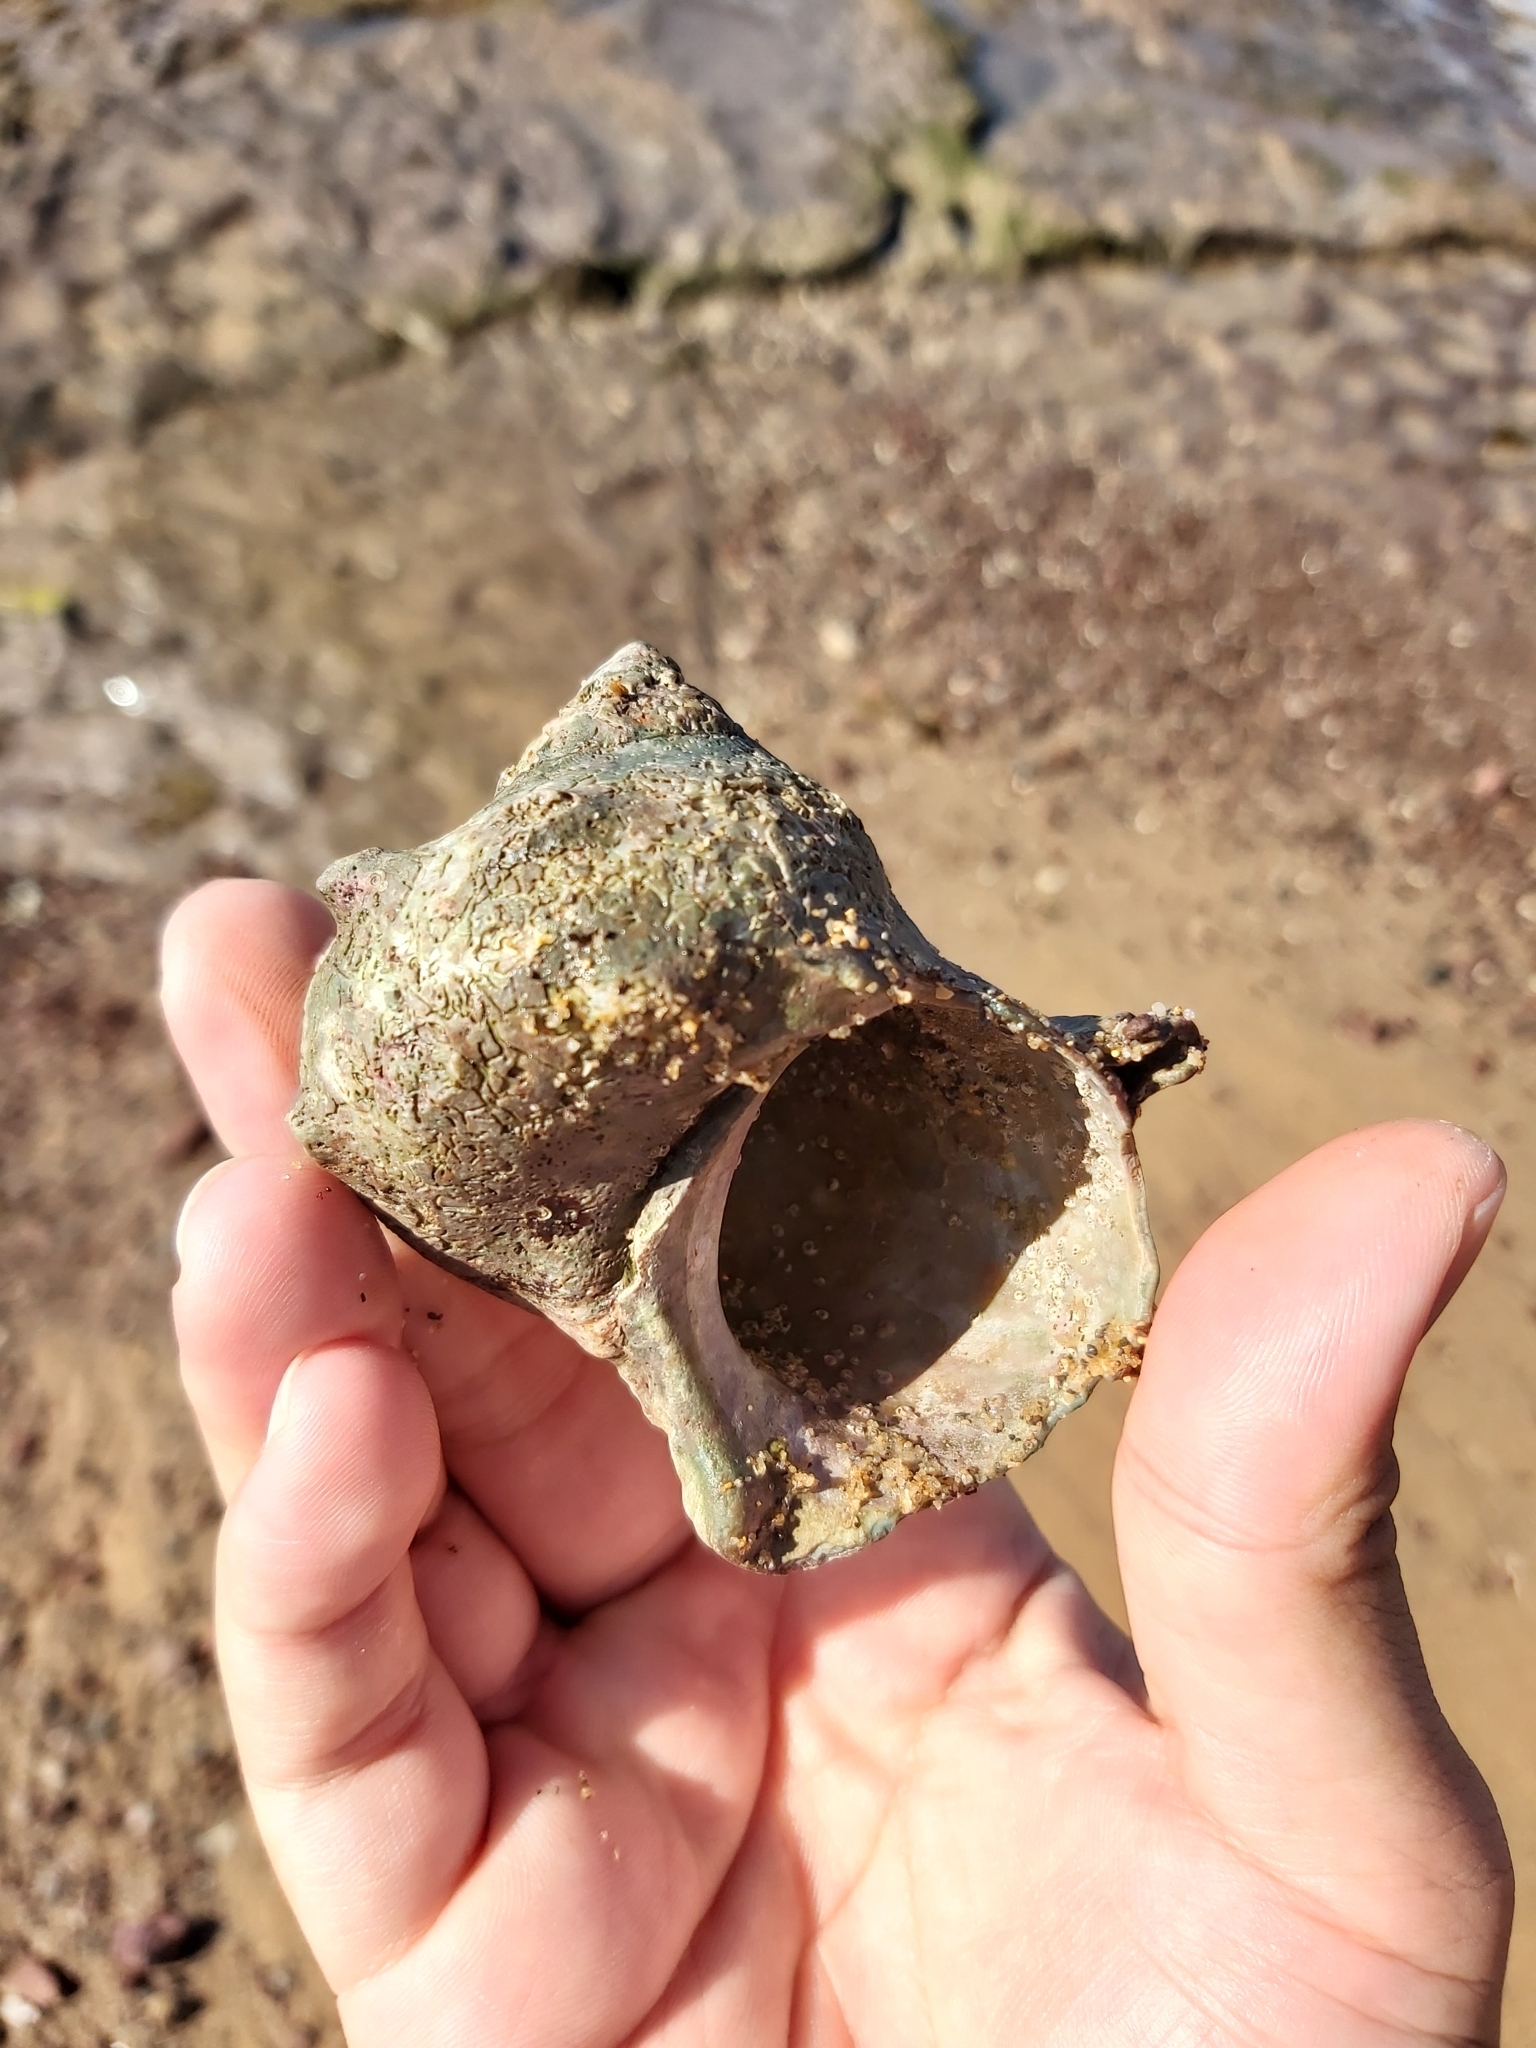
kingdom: Animalia
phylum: Mollusca
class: Gastropoda
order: Trochida
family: Turbinidae
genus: Turbo
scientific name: Turbo militaris
